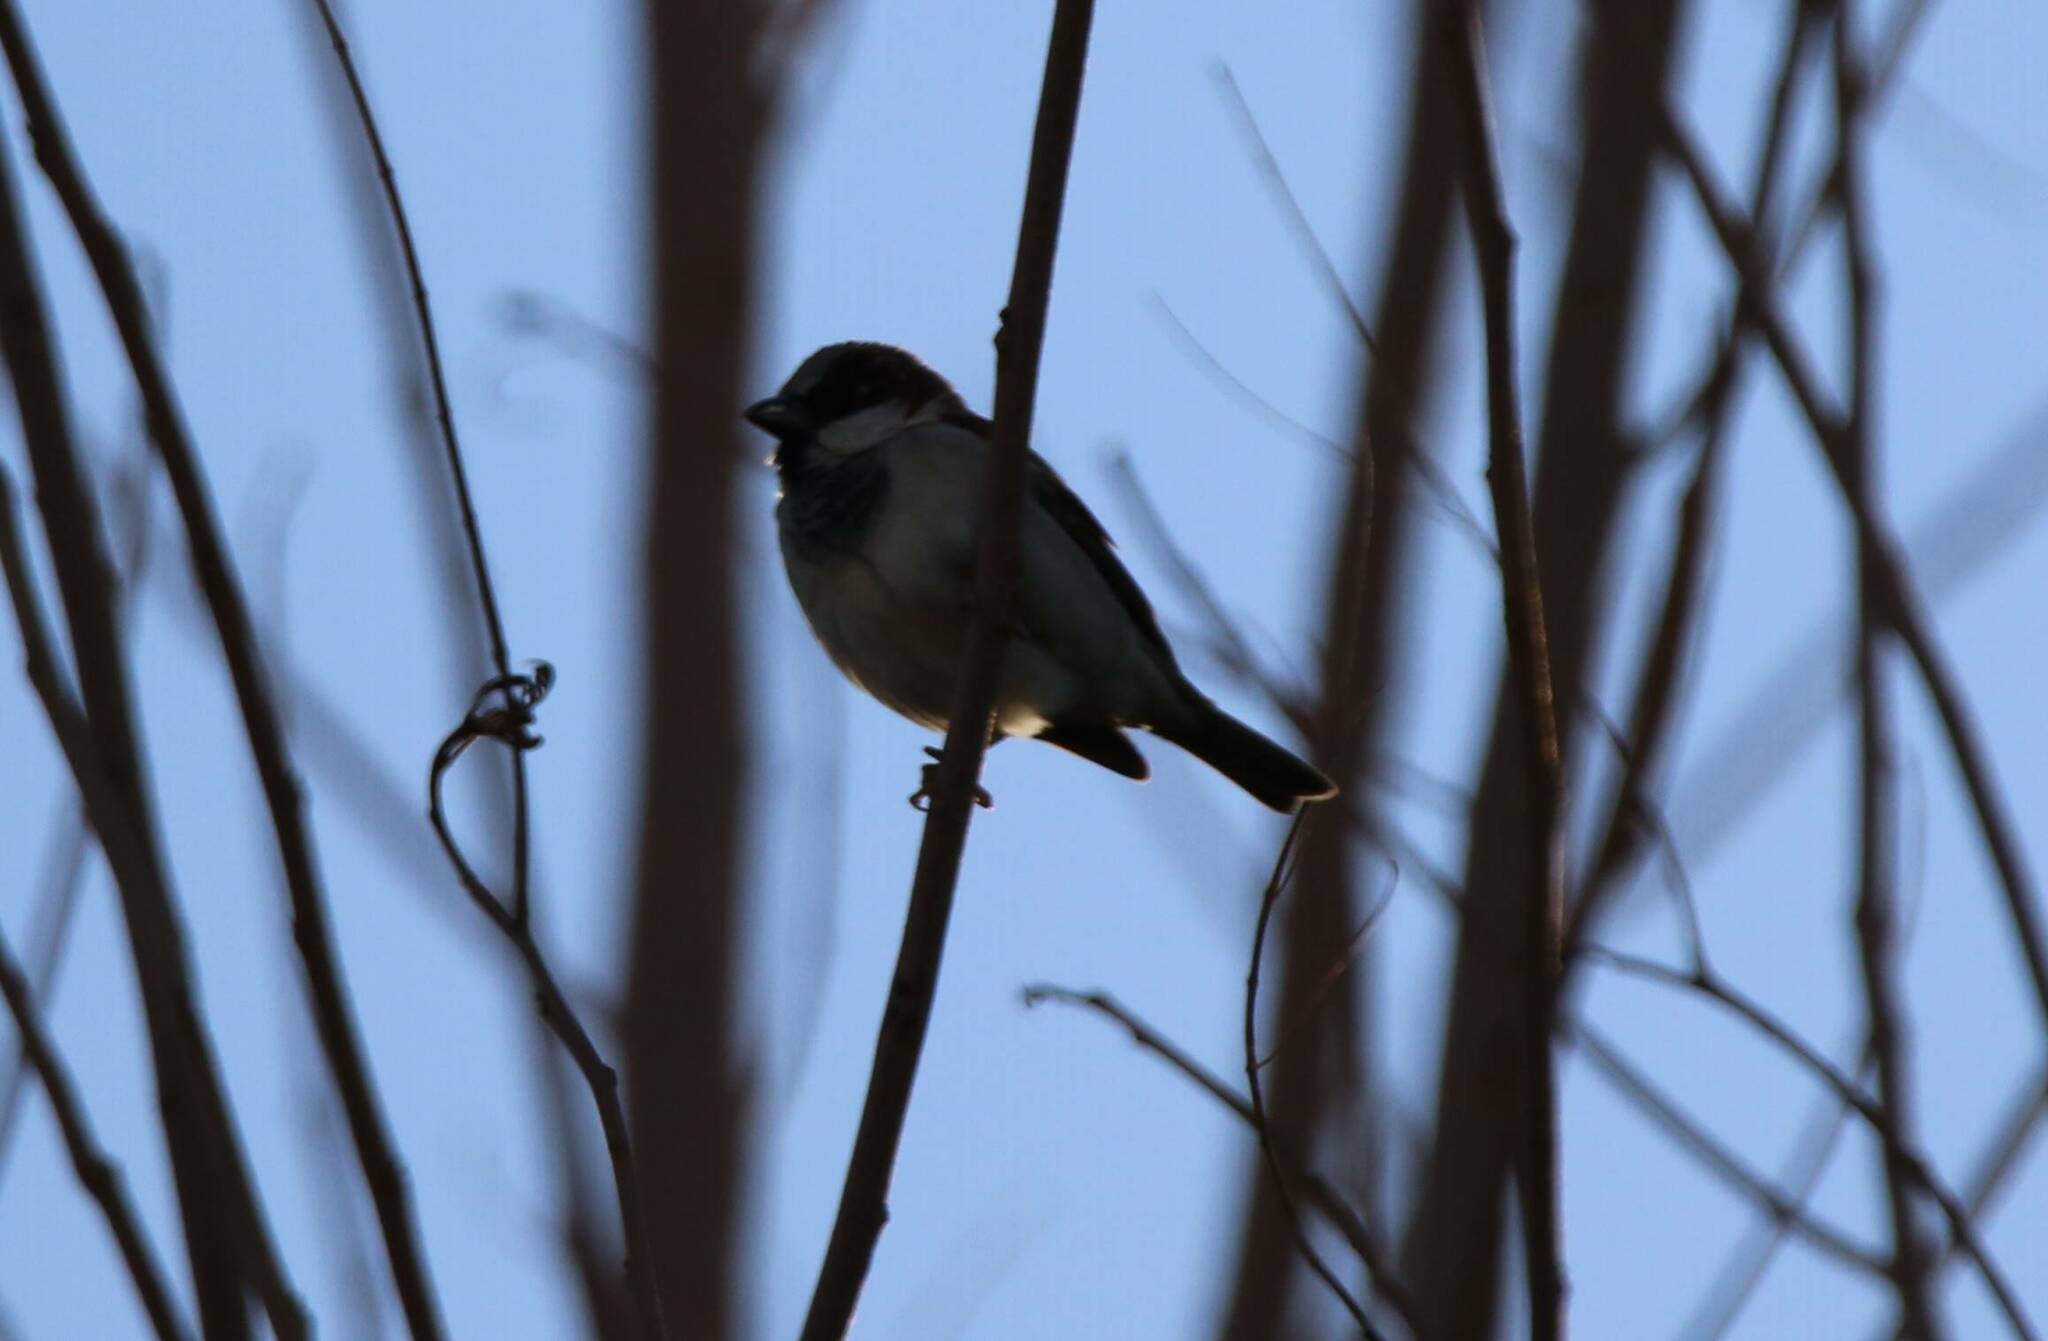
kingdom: Animalia
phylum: Chordata
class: Aves
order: Passeriformes
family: Passeridae
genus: Passer
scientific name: Passer domesticus
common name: House sparrow
